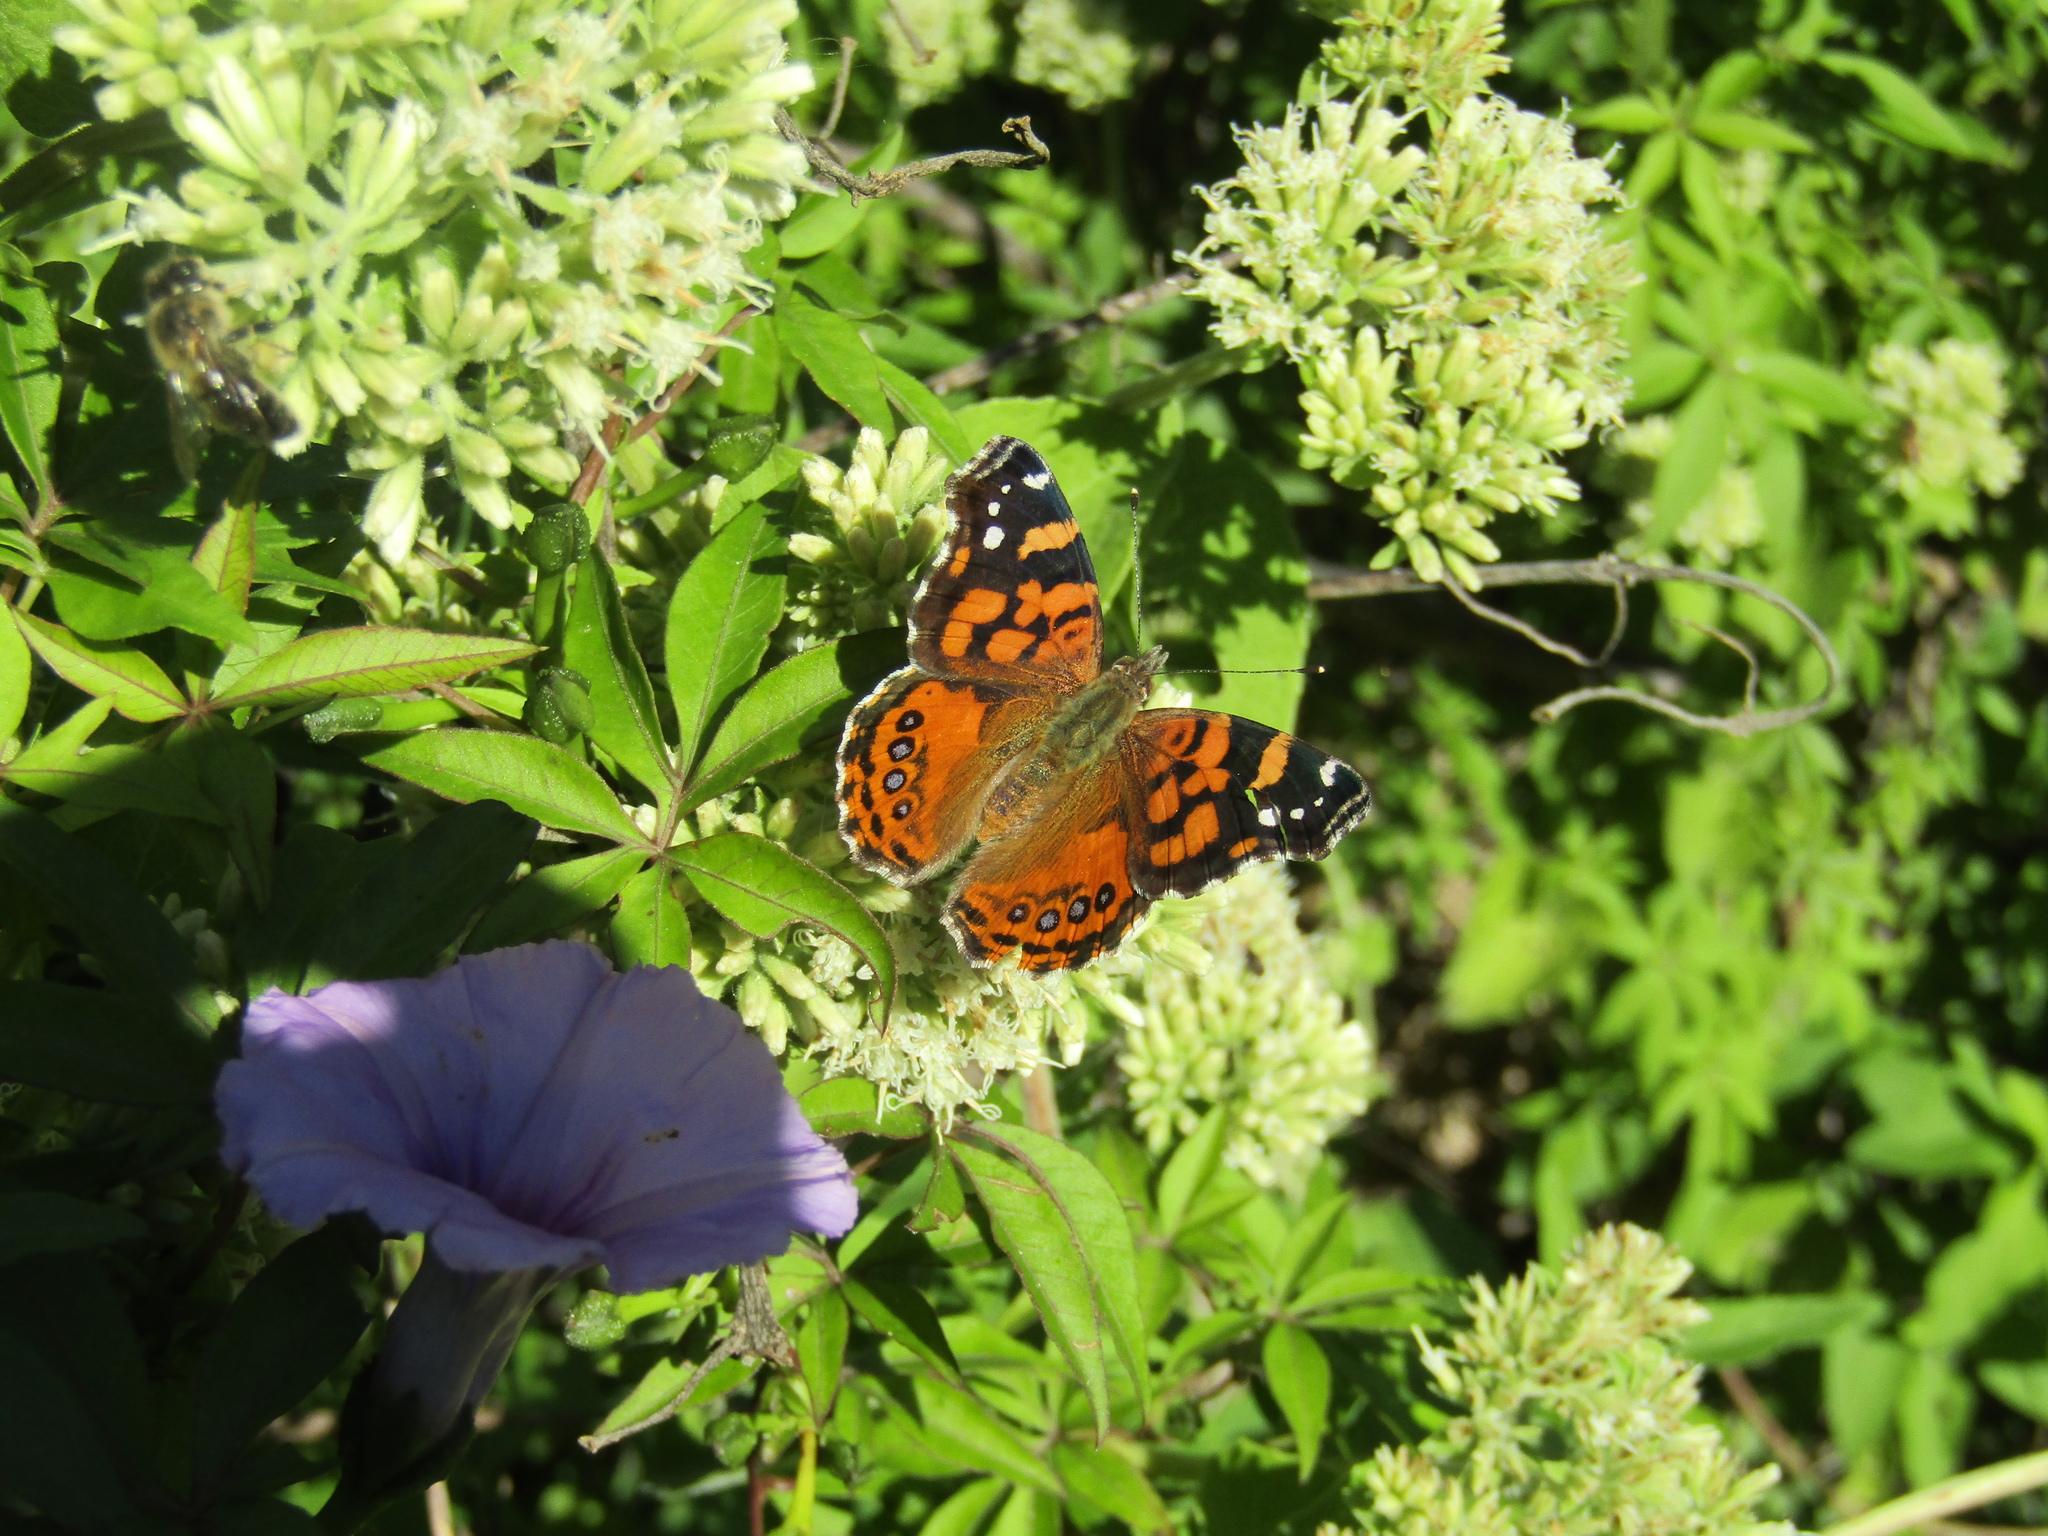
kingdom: Animalia
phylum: Arthropoda
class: Insecta
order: Lepidoptera
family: Nymphalidae
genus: Vanessa
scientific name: Vanessa carye
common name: Subtropical lady
